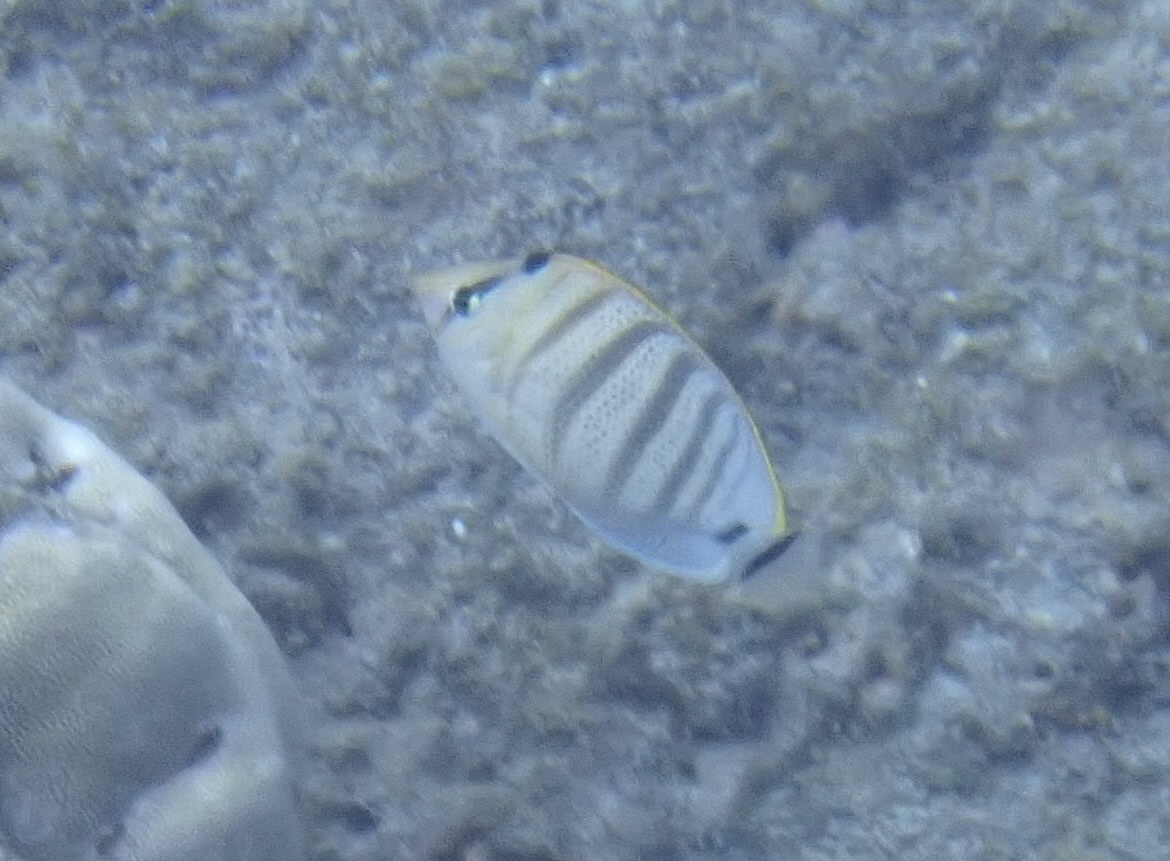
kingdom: Animalia
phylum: Chordata
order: Perciformes
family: Chaetodontidae
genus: Chaetodon
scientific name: Chaetodon multicinctus
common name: Multiband butterflyfish
